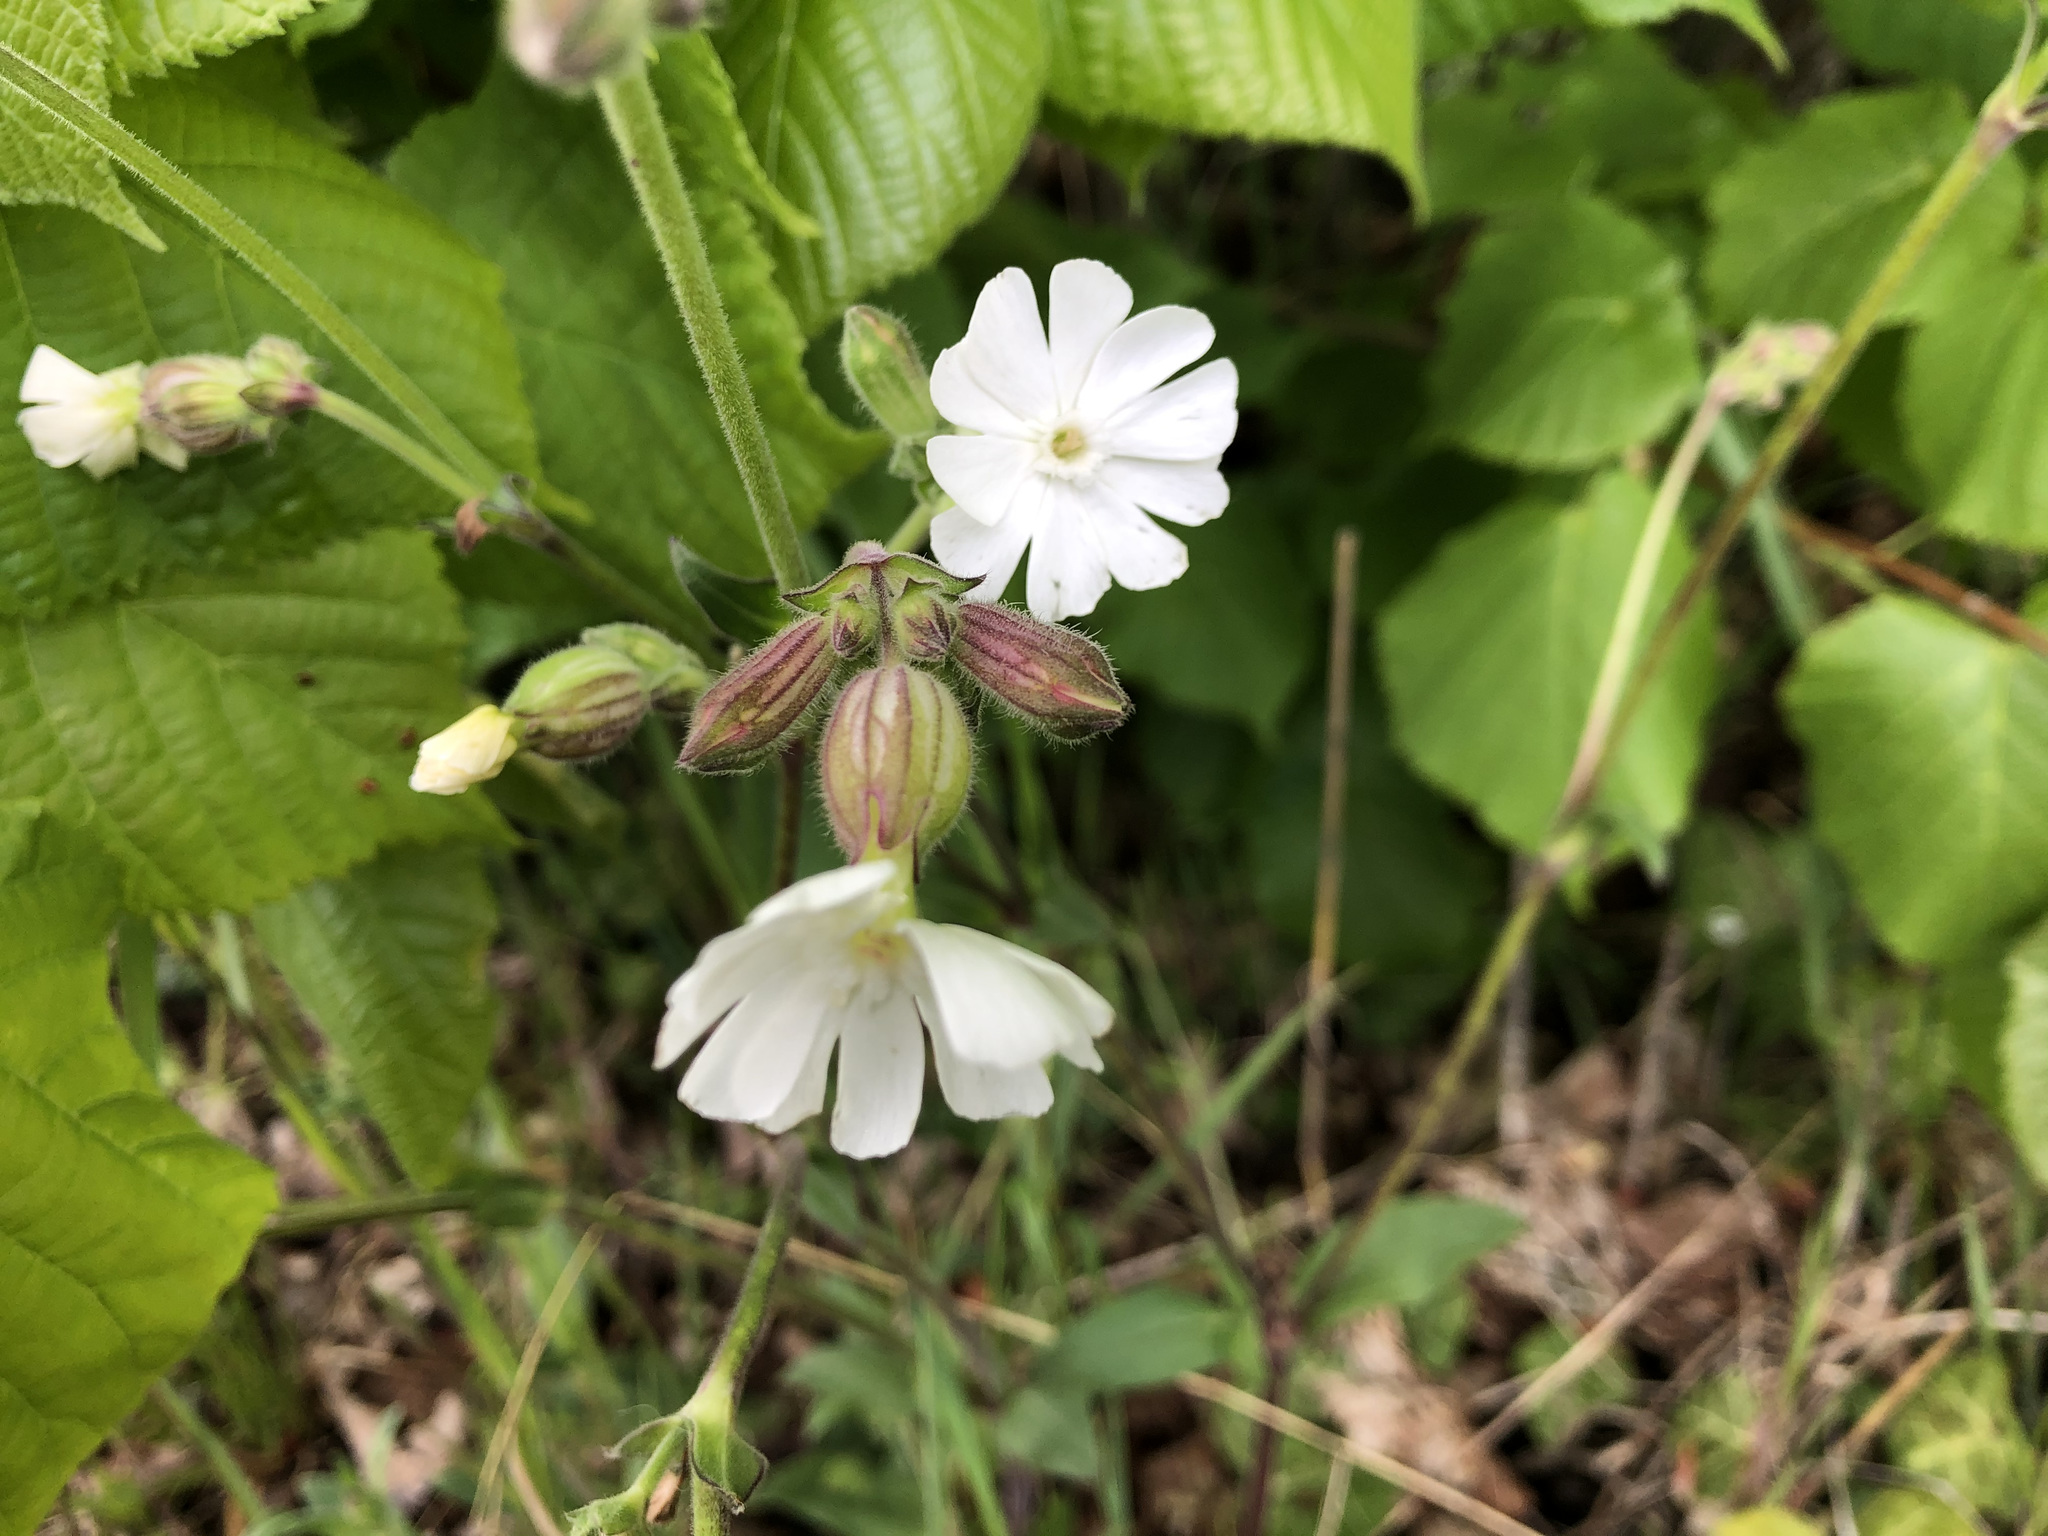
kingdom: Plantae
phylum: Tracheophyta
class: Magnoliopsida
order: Caryophyllales
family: Caryophyllaceae
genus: Silene
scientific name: Silene latifolia
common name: White campion
